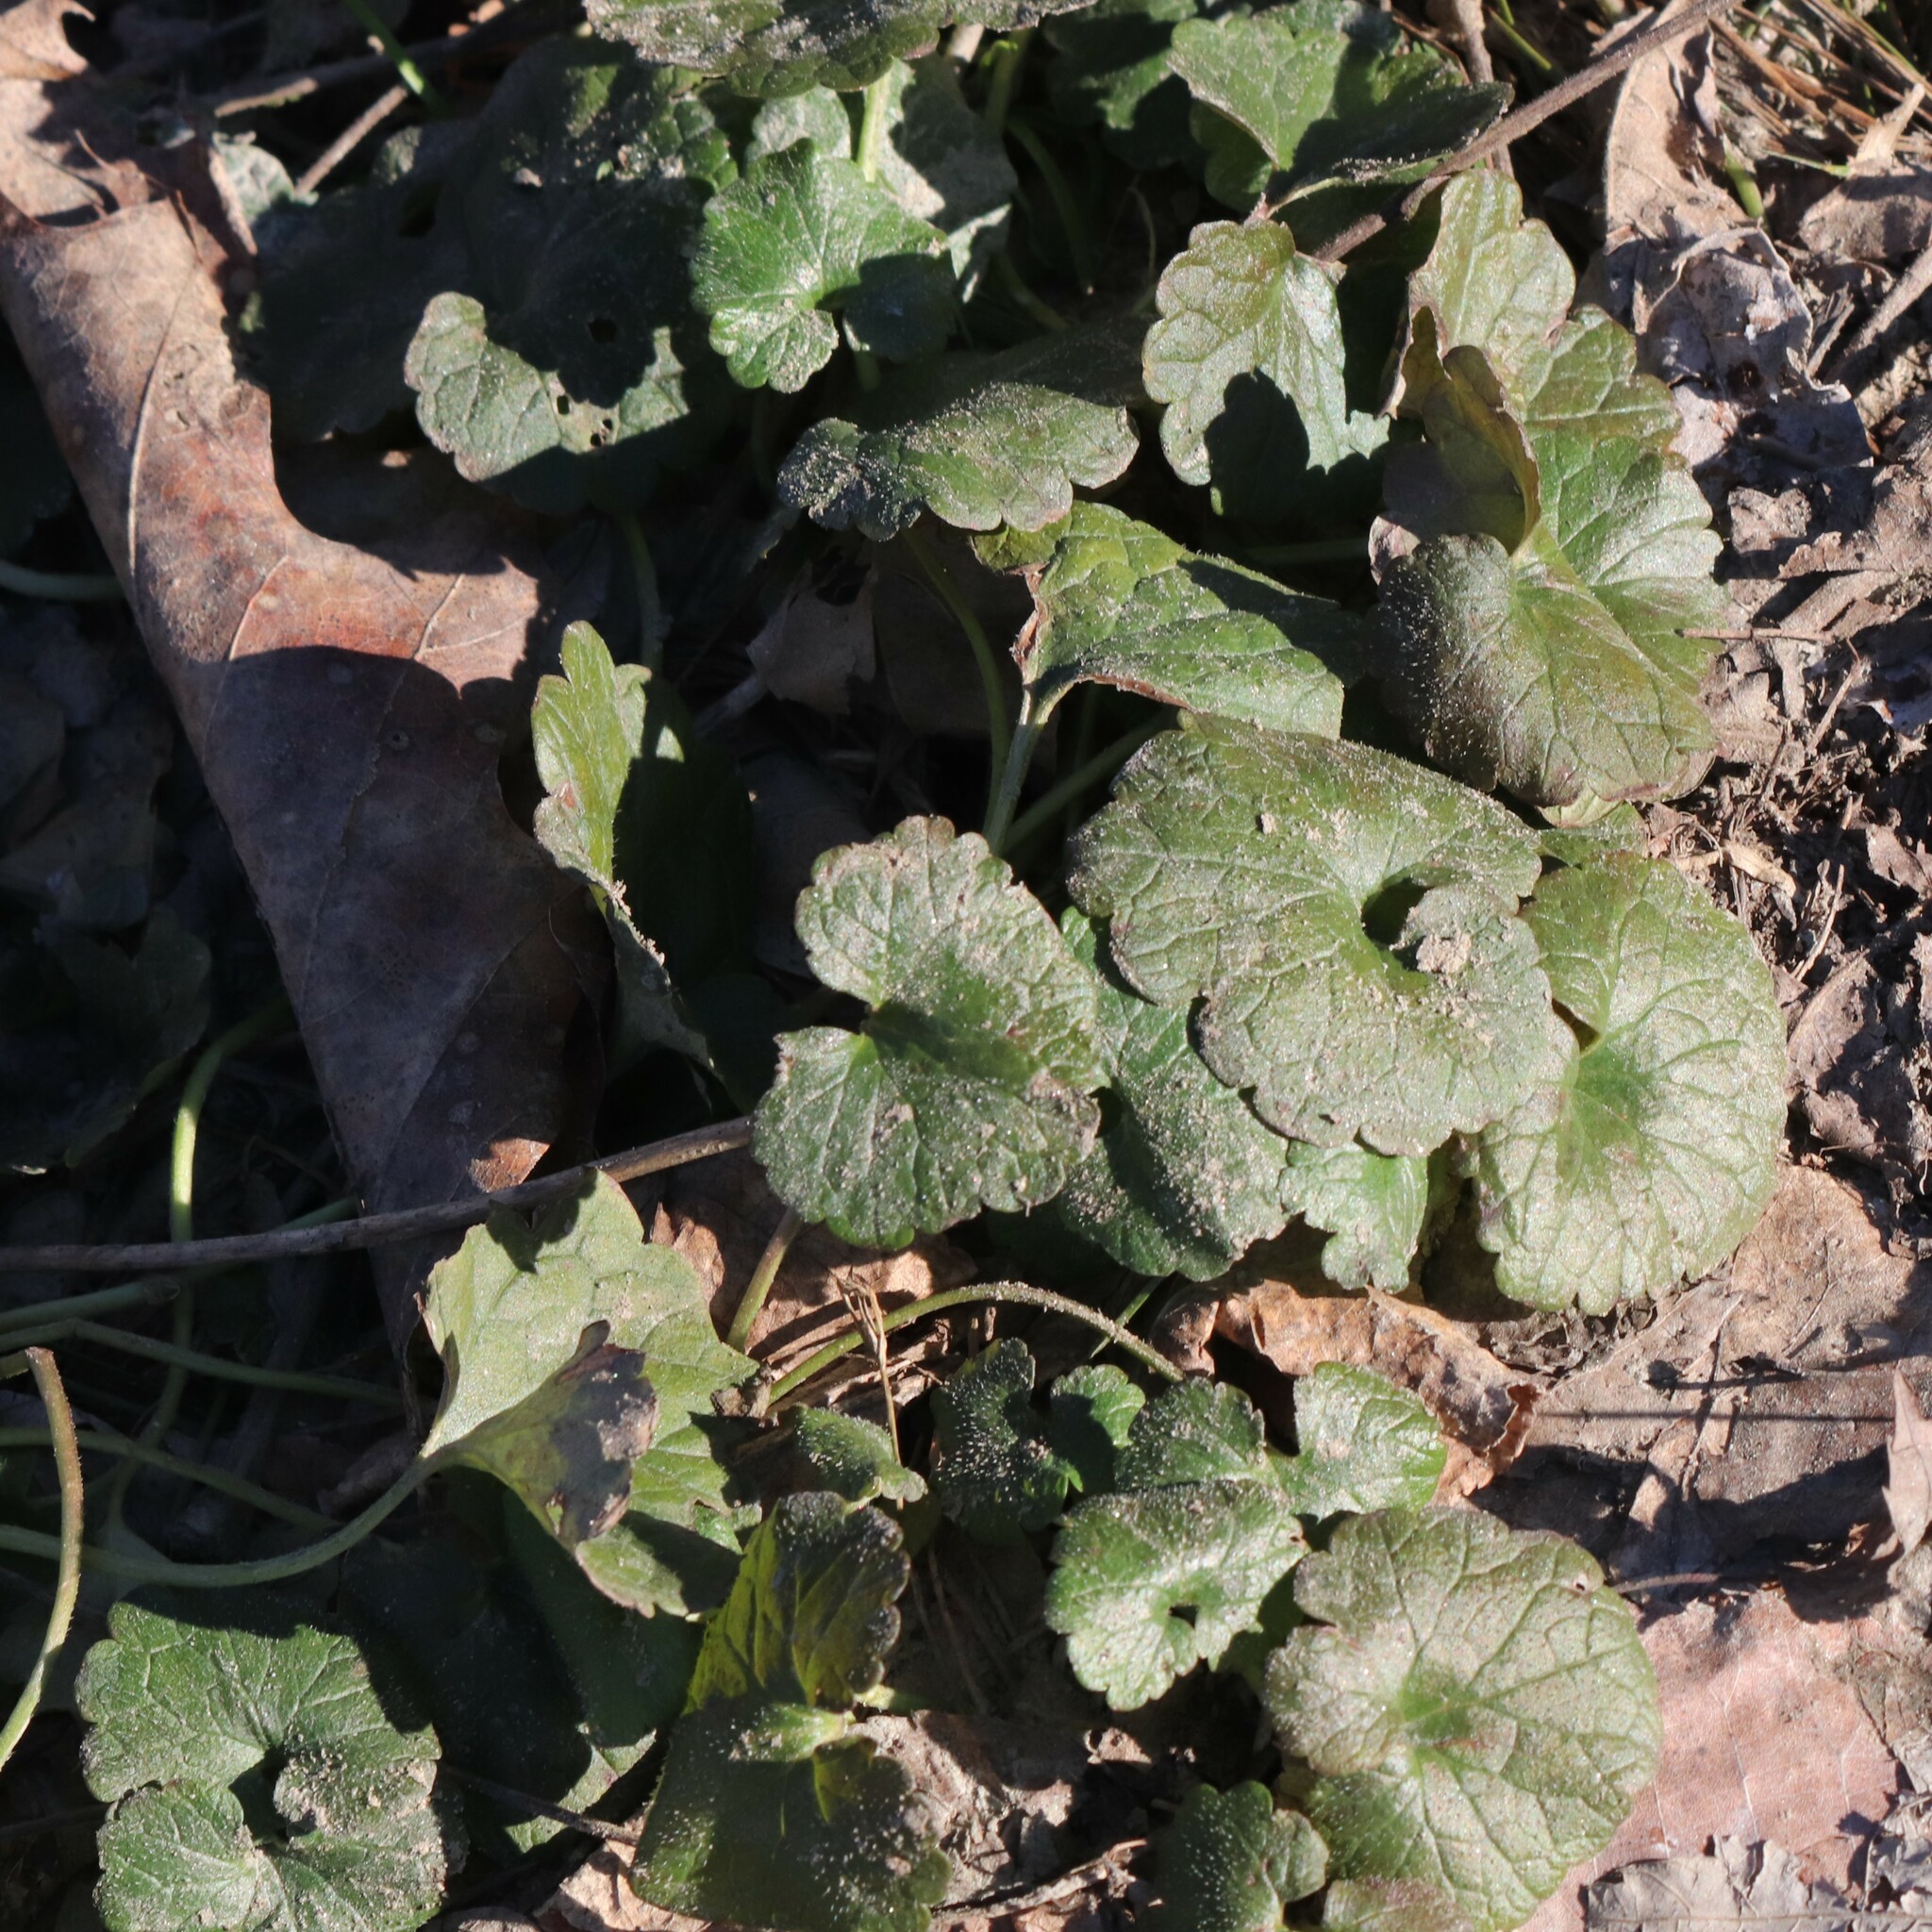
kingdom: Plantae
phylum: Tracheophyta
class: Magnoliopsida
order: Lamiales
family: Lamiaceae
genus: Glechoma
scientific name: Glechoma hederacea
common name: Ground ivy
